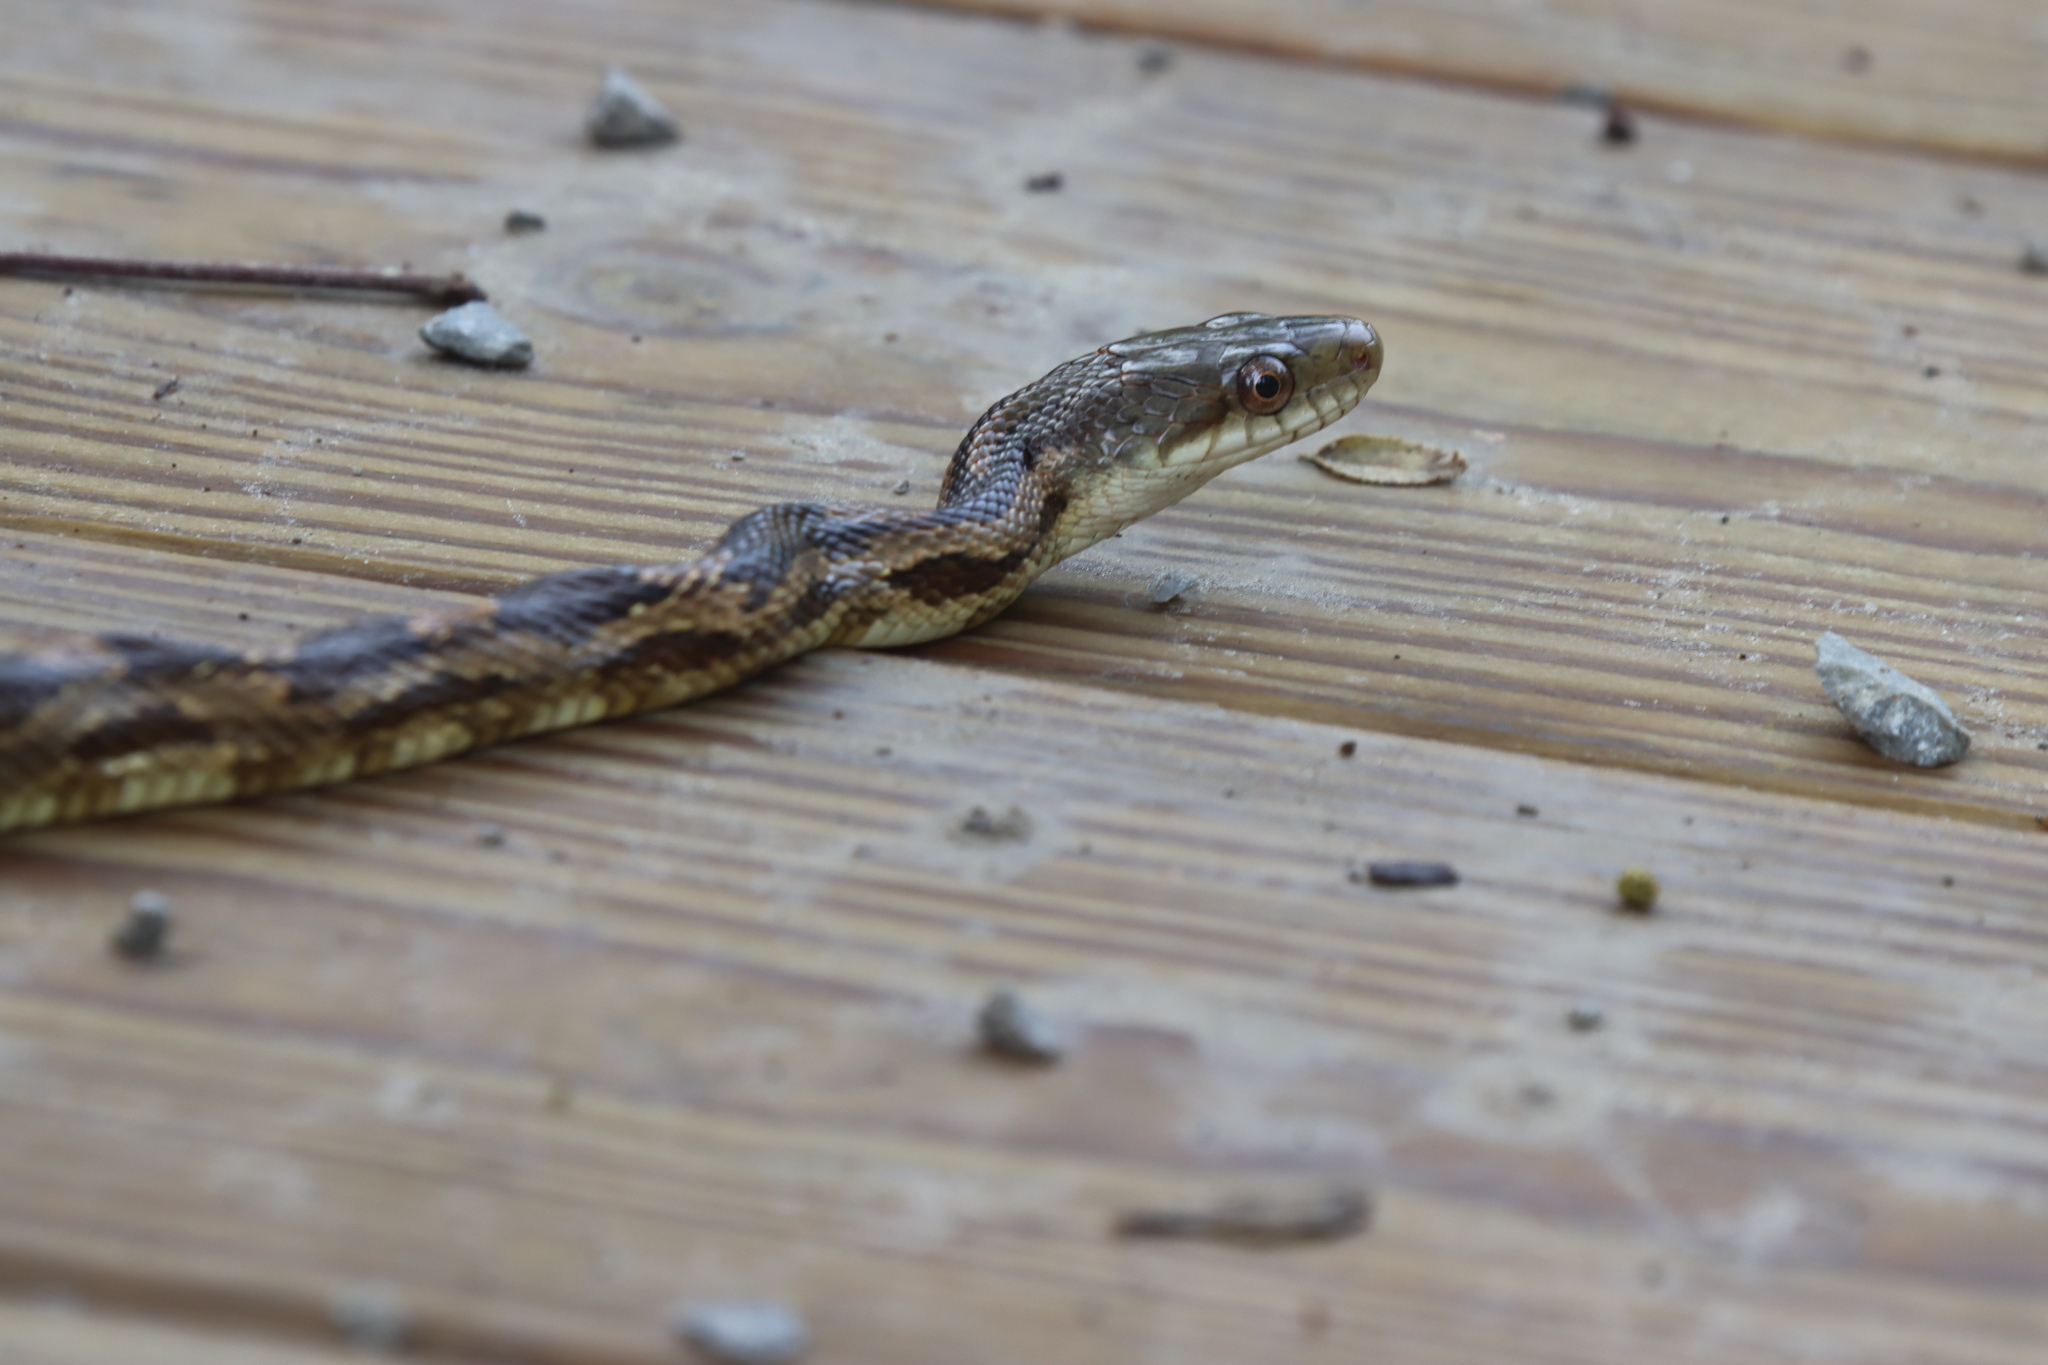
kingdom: Animalia
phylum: Chordata
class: Squamata
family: Colubridae
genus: Pantherophis
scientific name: Pantherophis spiloides
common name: Gray rat snake
